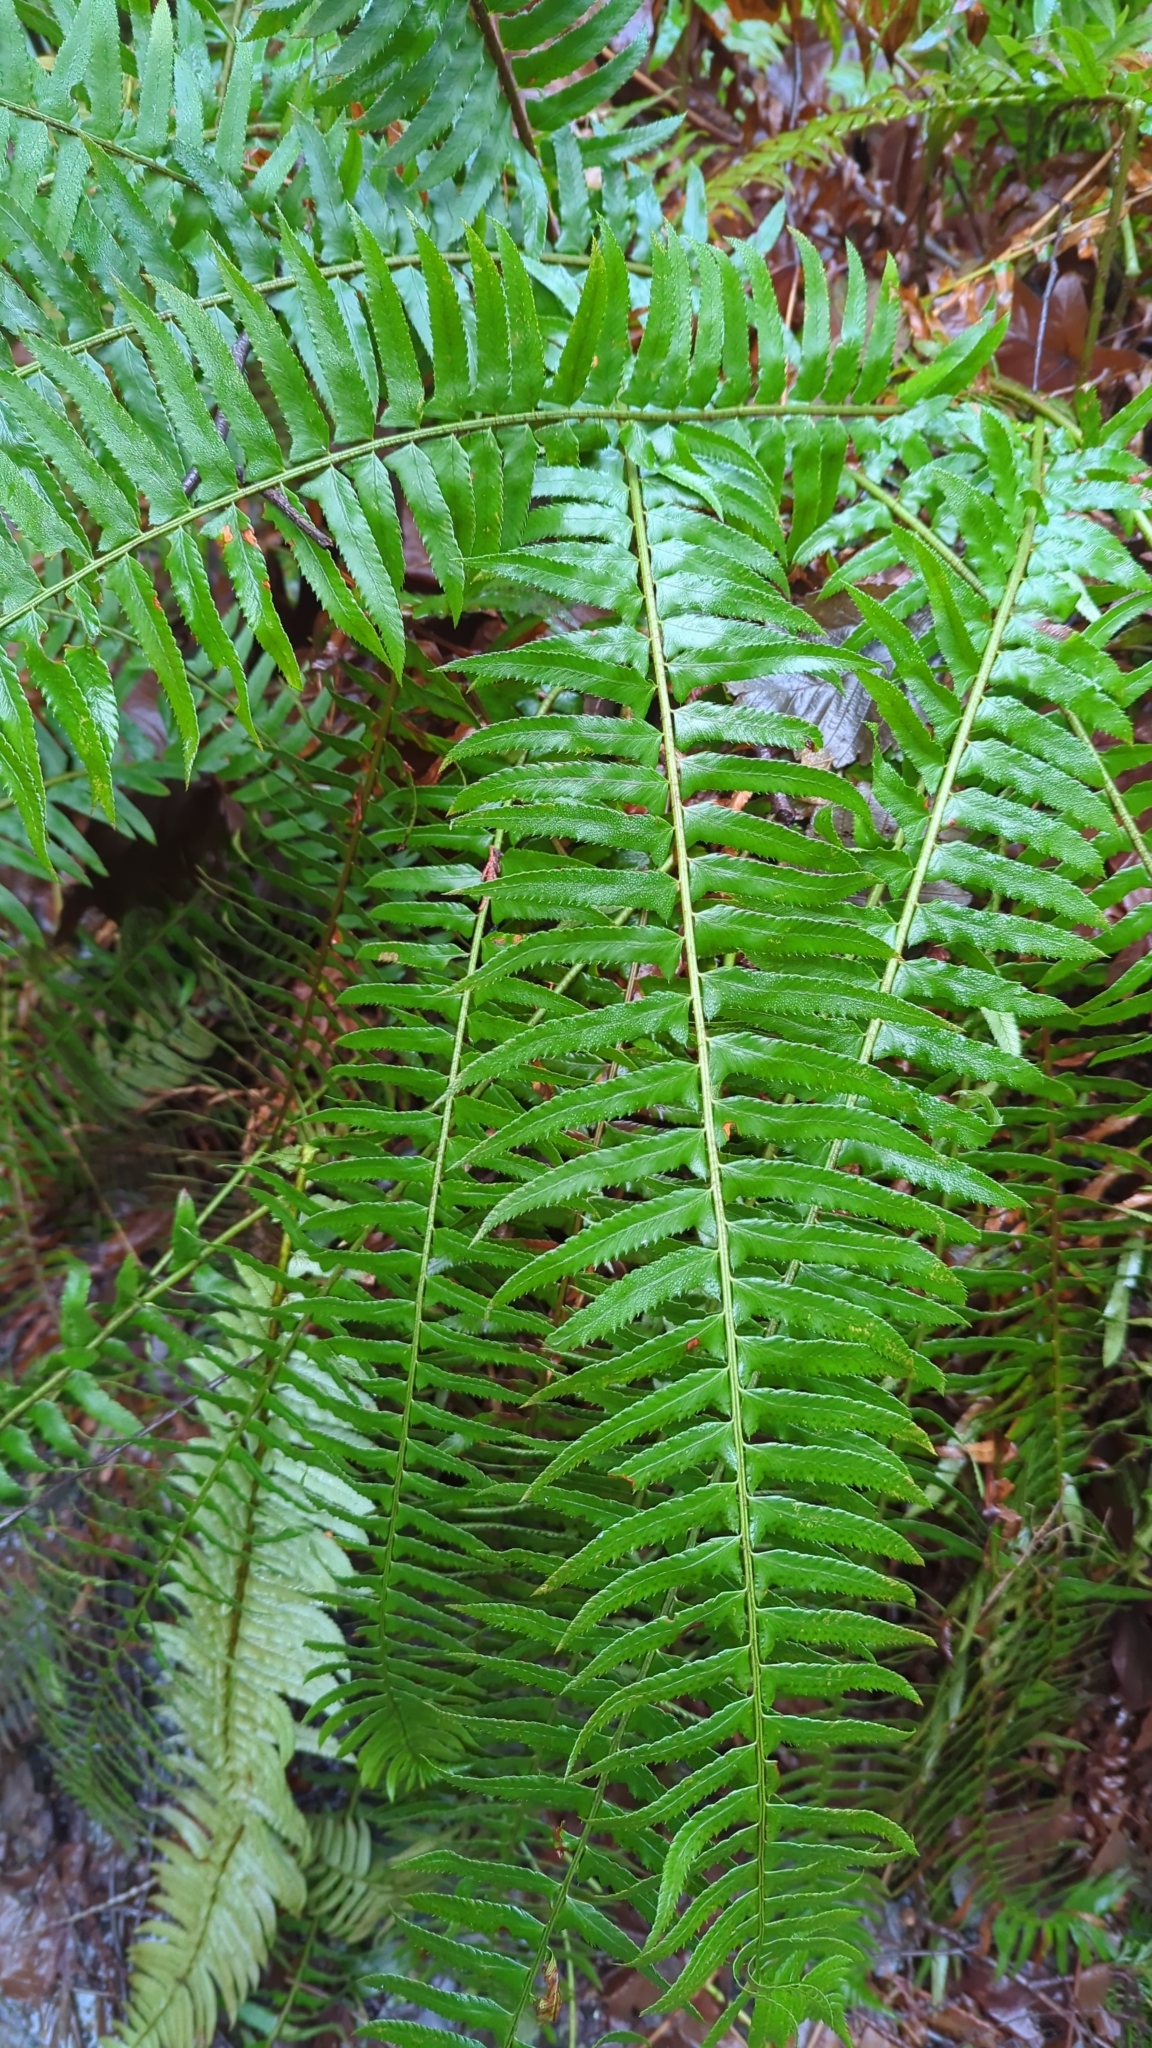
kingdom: Plantae
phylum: Tracheophyta
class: Polypodiopsida
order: Polypodiales
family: Dryopteridaceae
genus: Polystichum
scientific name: Polystichum munitum
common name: Western sword-fern
